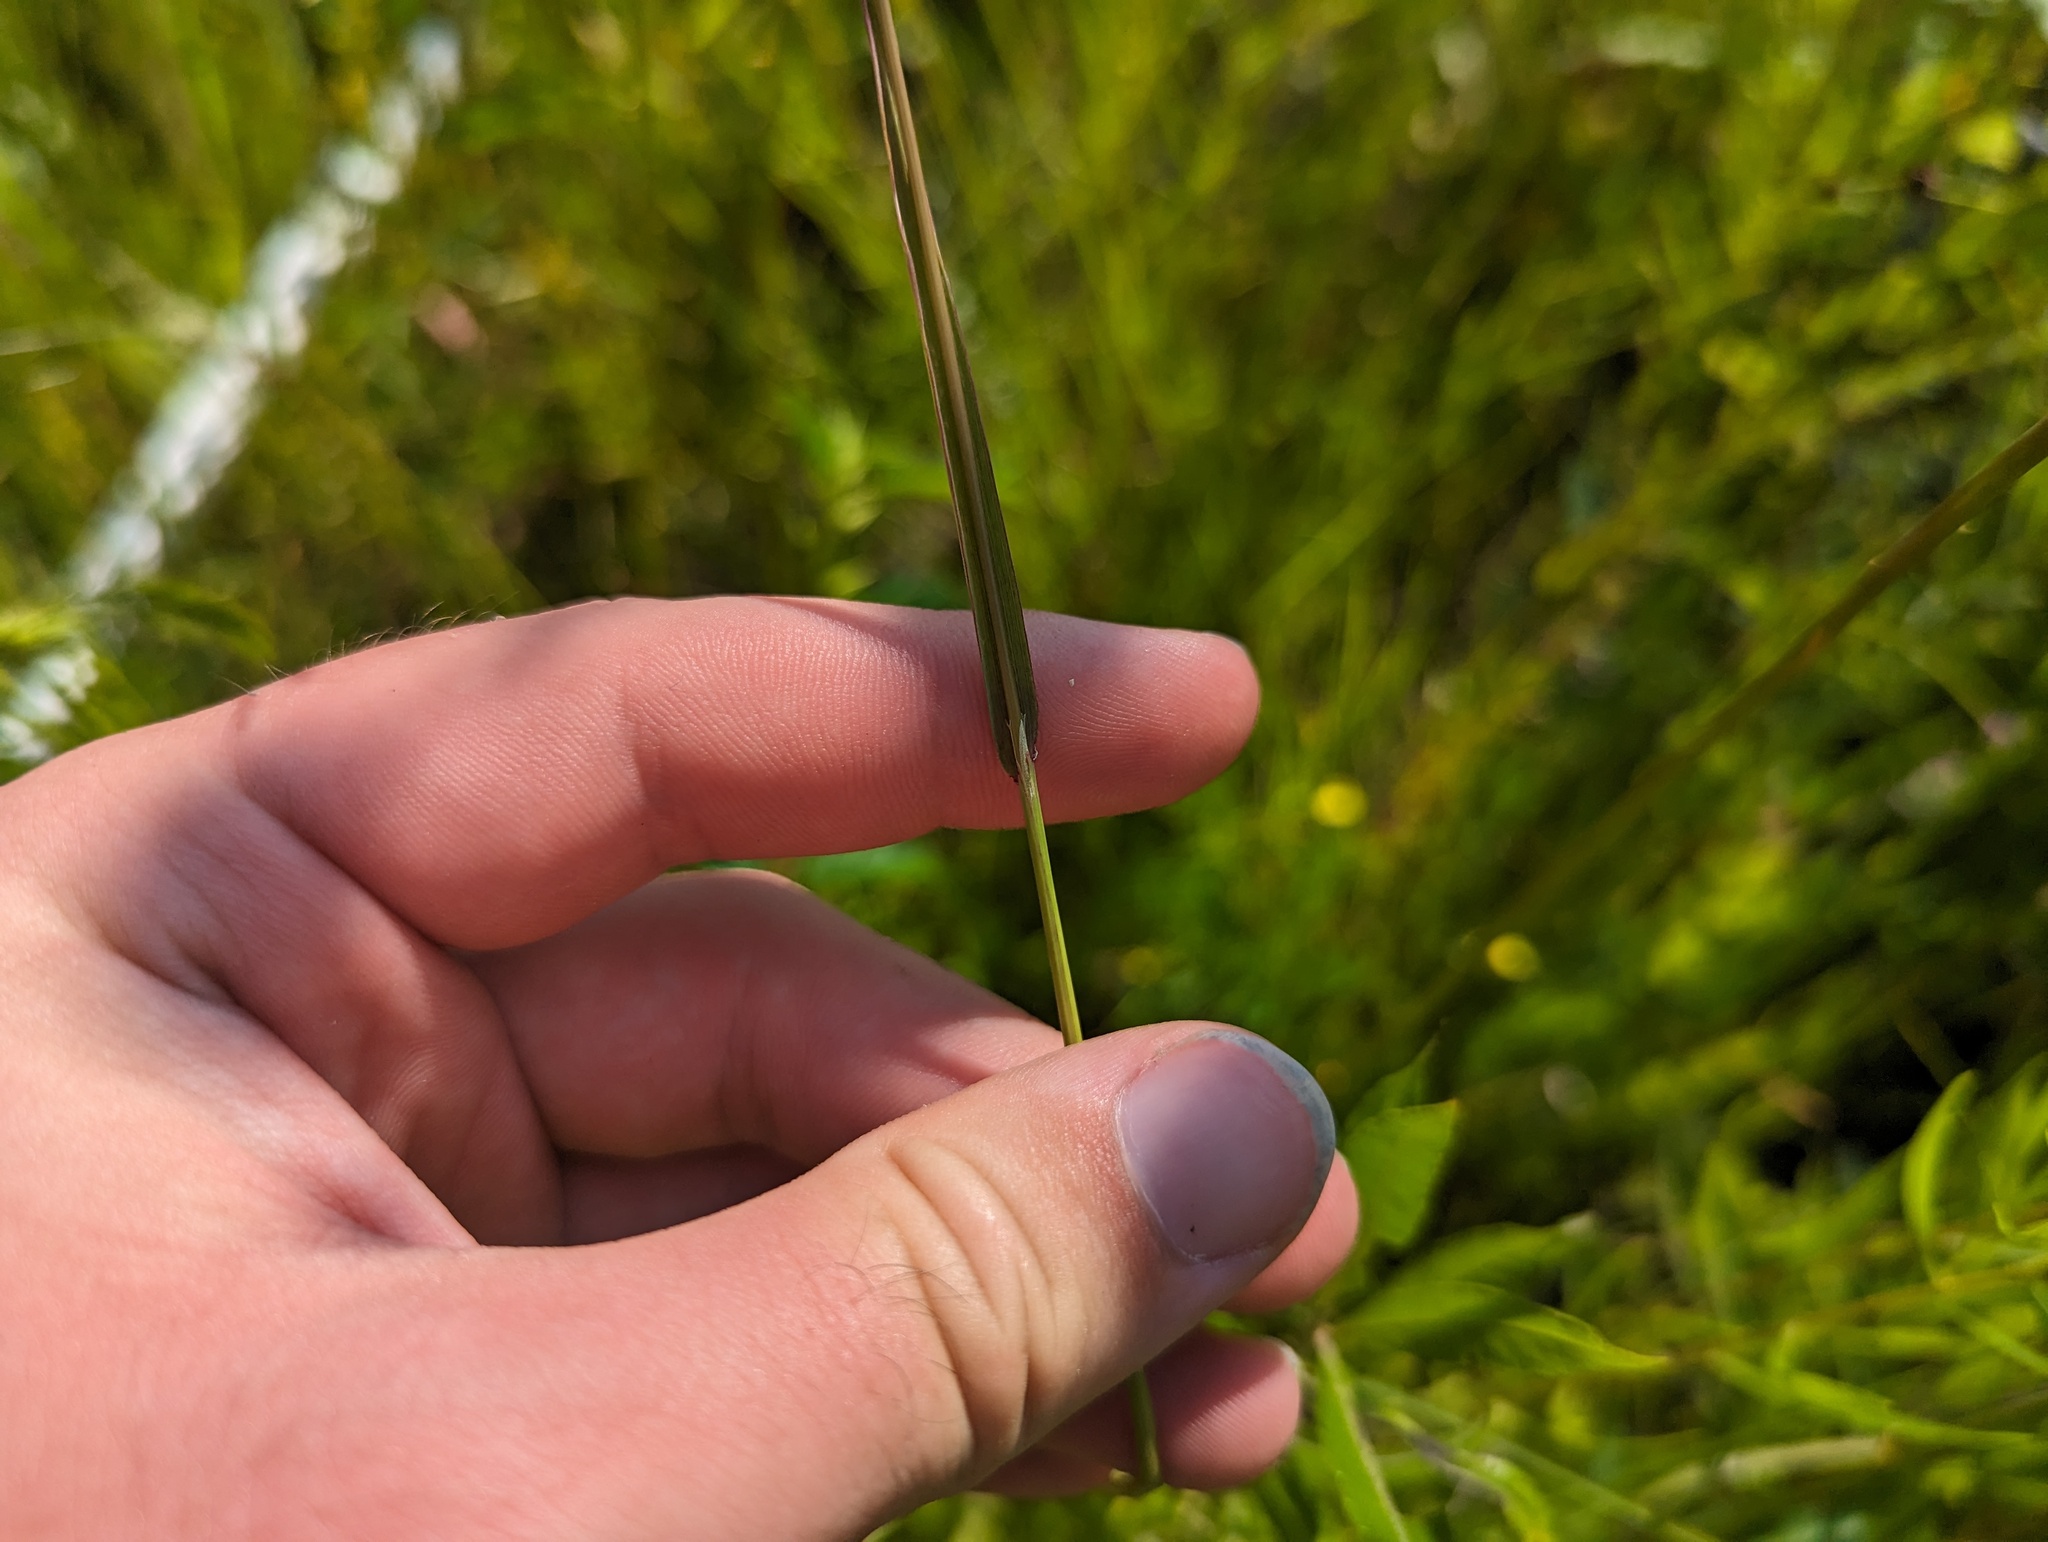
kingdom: Plantae
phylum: Tracheophyta
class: Liliopsida
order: Poales
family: Poaceae
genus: Agrostis
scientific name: Agrostis gigantea
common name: Black bent
